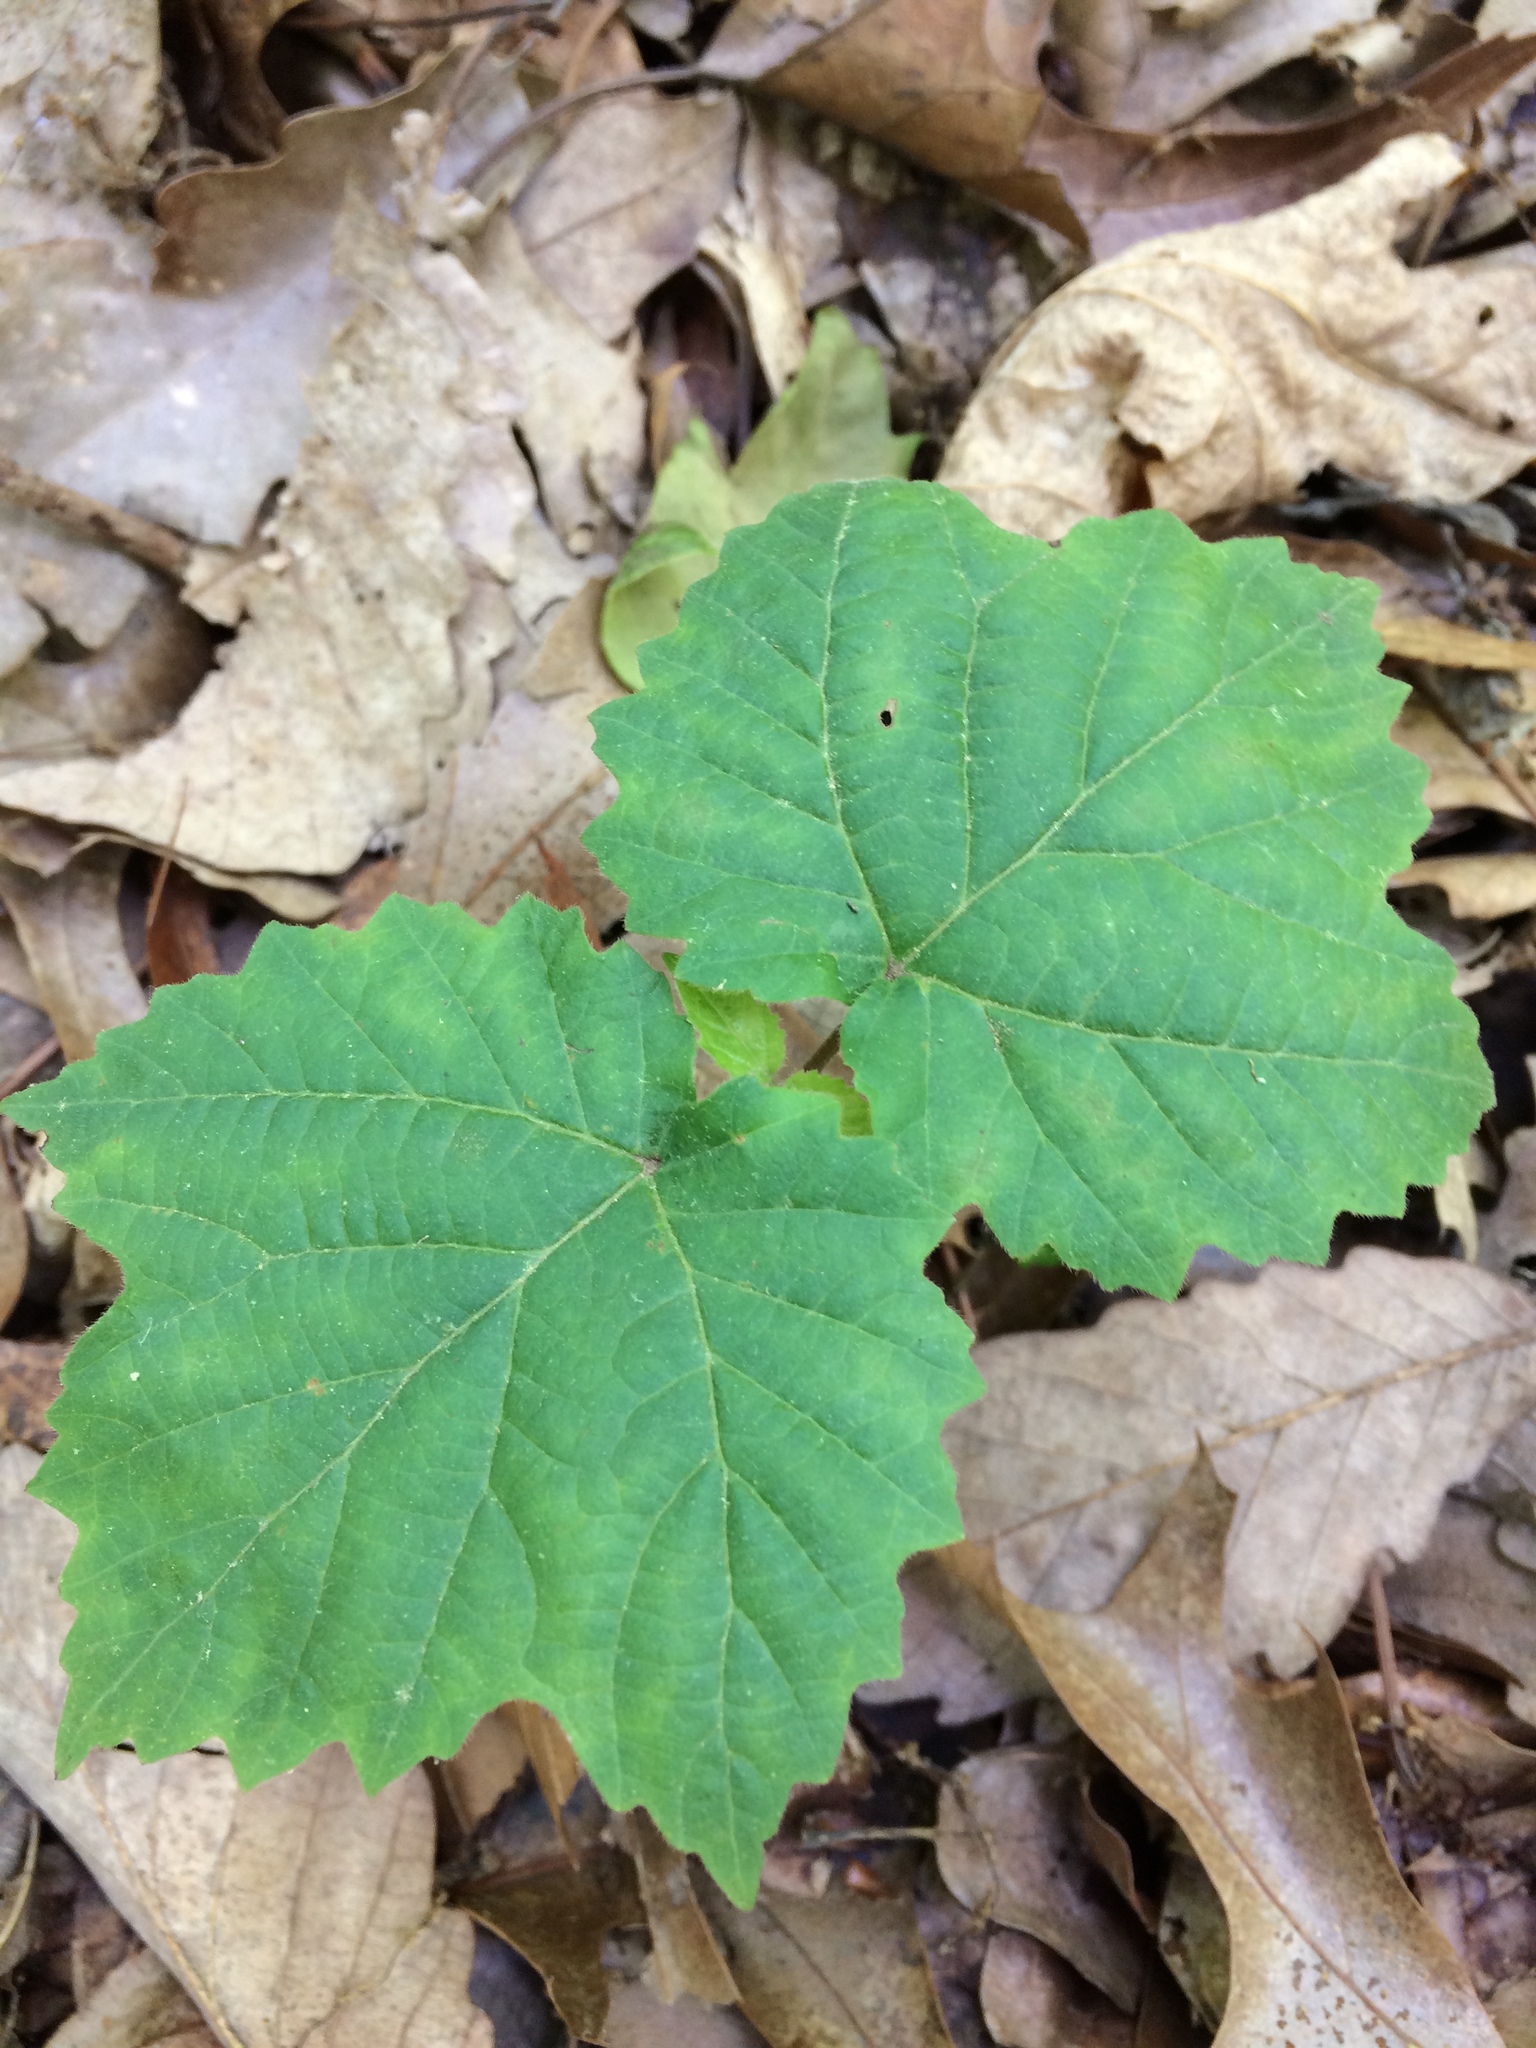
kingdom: Plantae
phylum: Tracheophyta
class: Magnoliopsida
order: Dipsacales
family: Viburnaceae
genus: Viburnum
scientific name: Viburnum acerifolium
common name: Dockmackie
